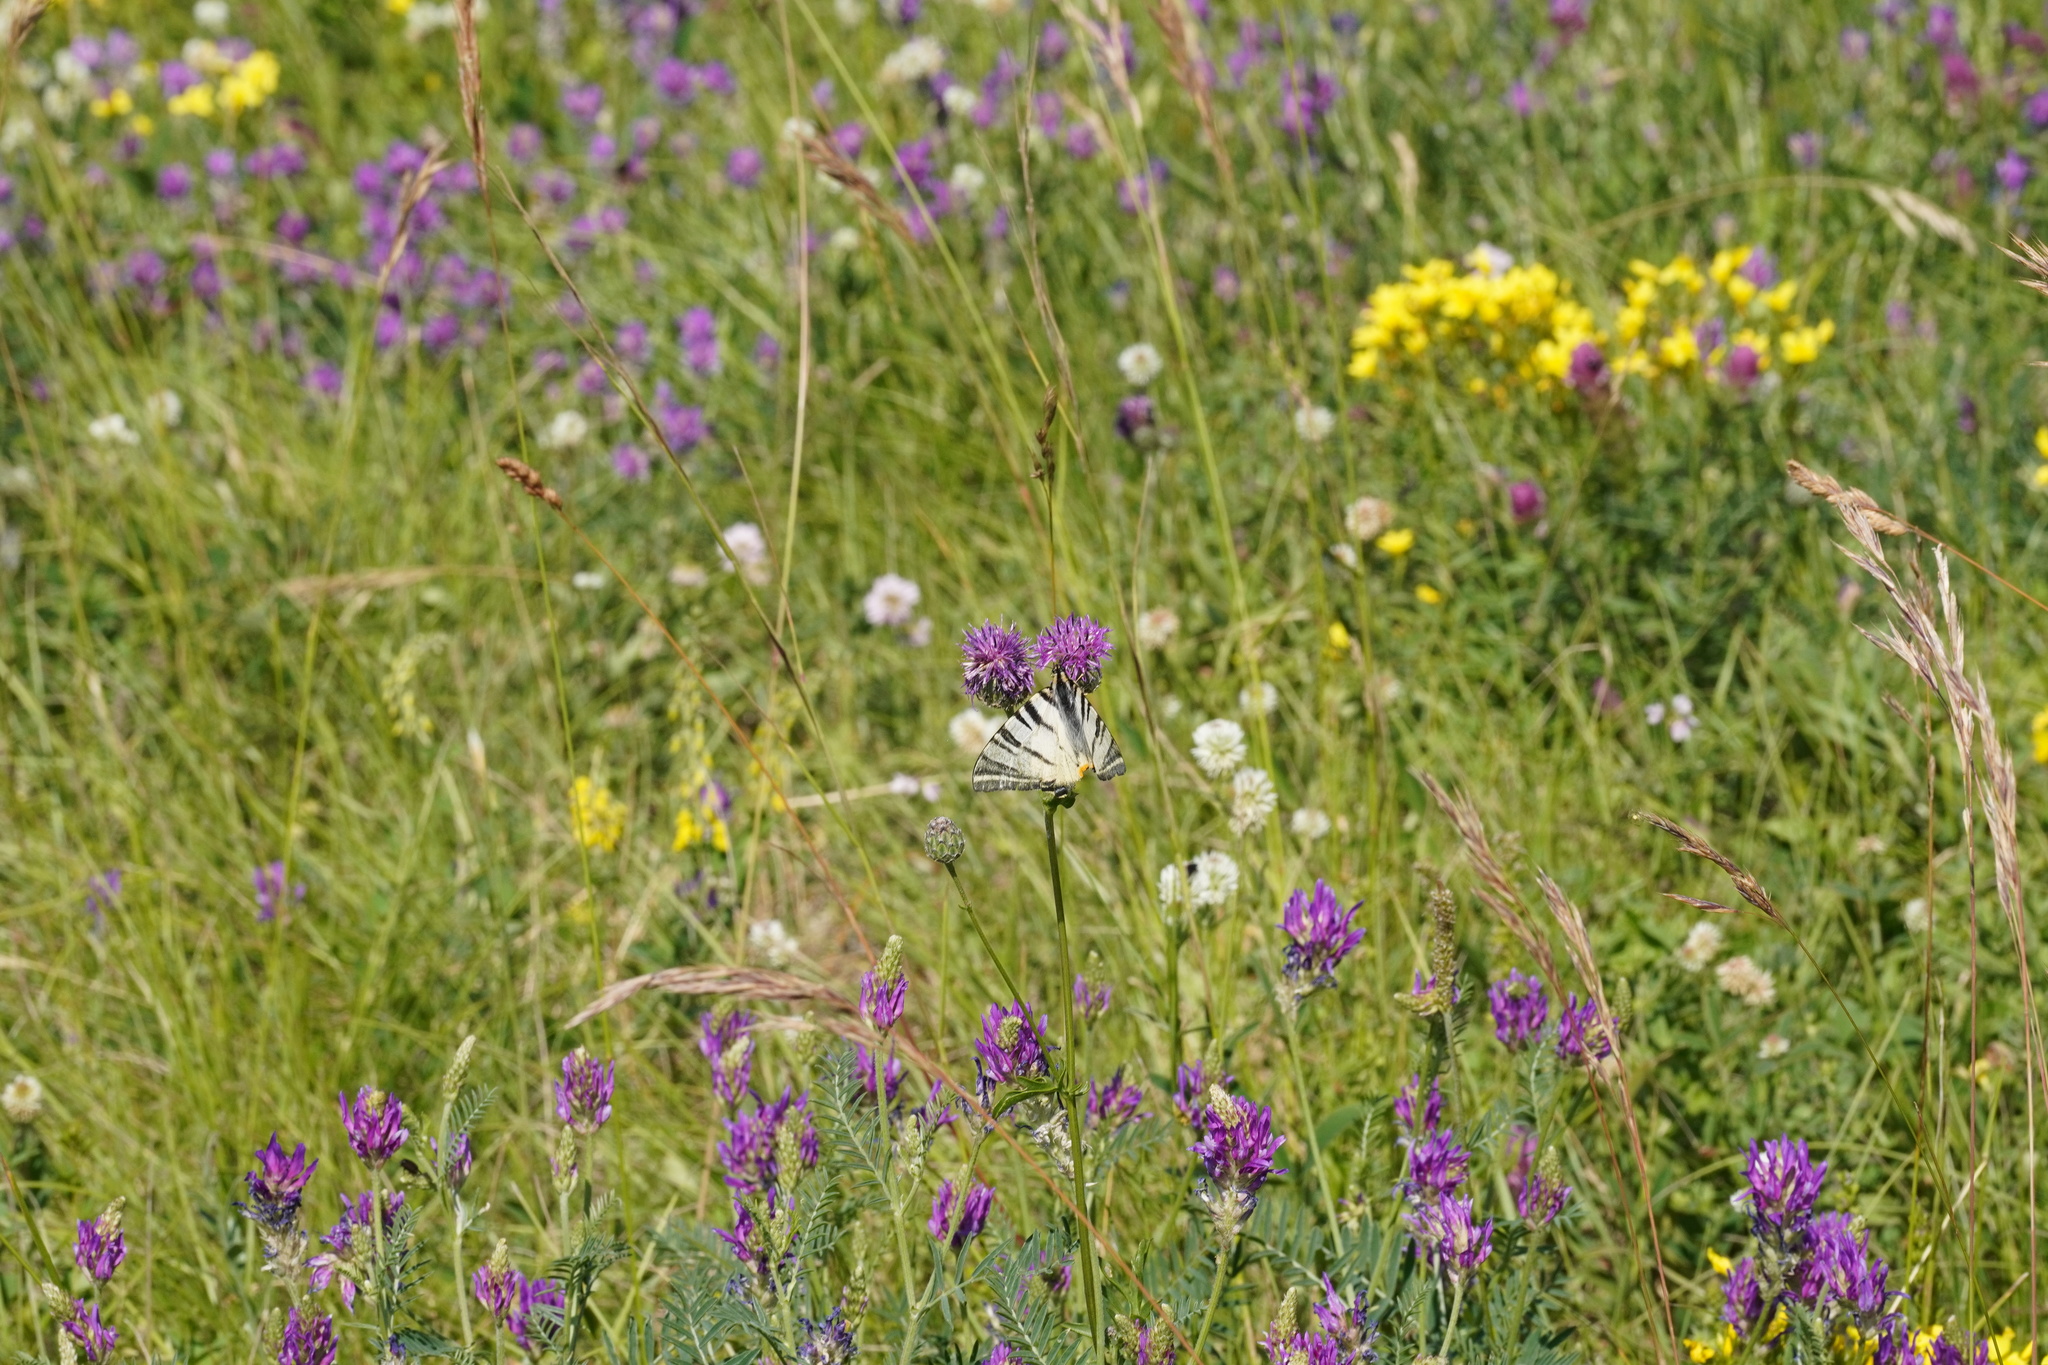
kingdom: Animalia
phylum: Arthropoda
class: Insecta
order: Lepidoptera
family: Papilionidae
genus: Iphiclides
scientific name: Iphiclides podalirius
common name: Scarce swallowtail
